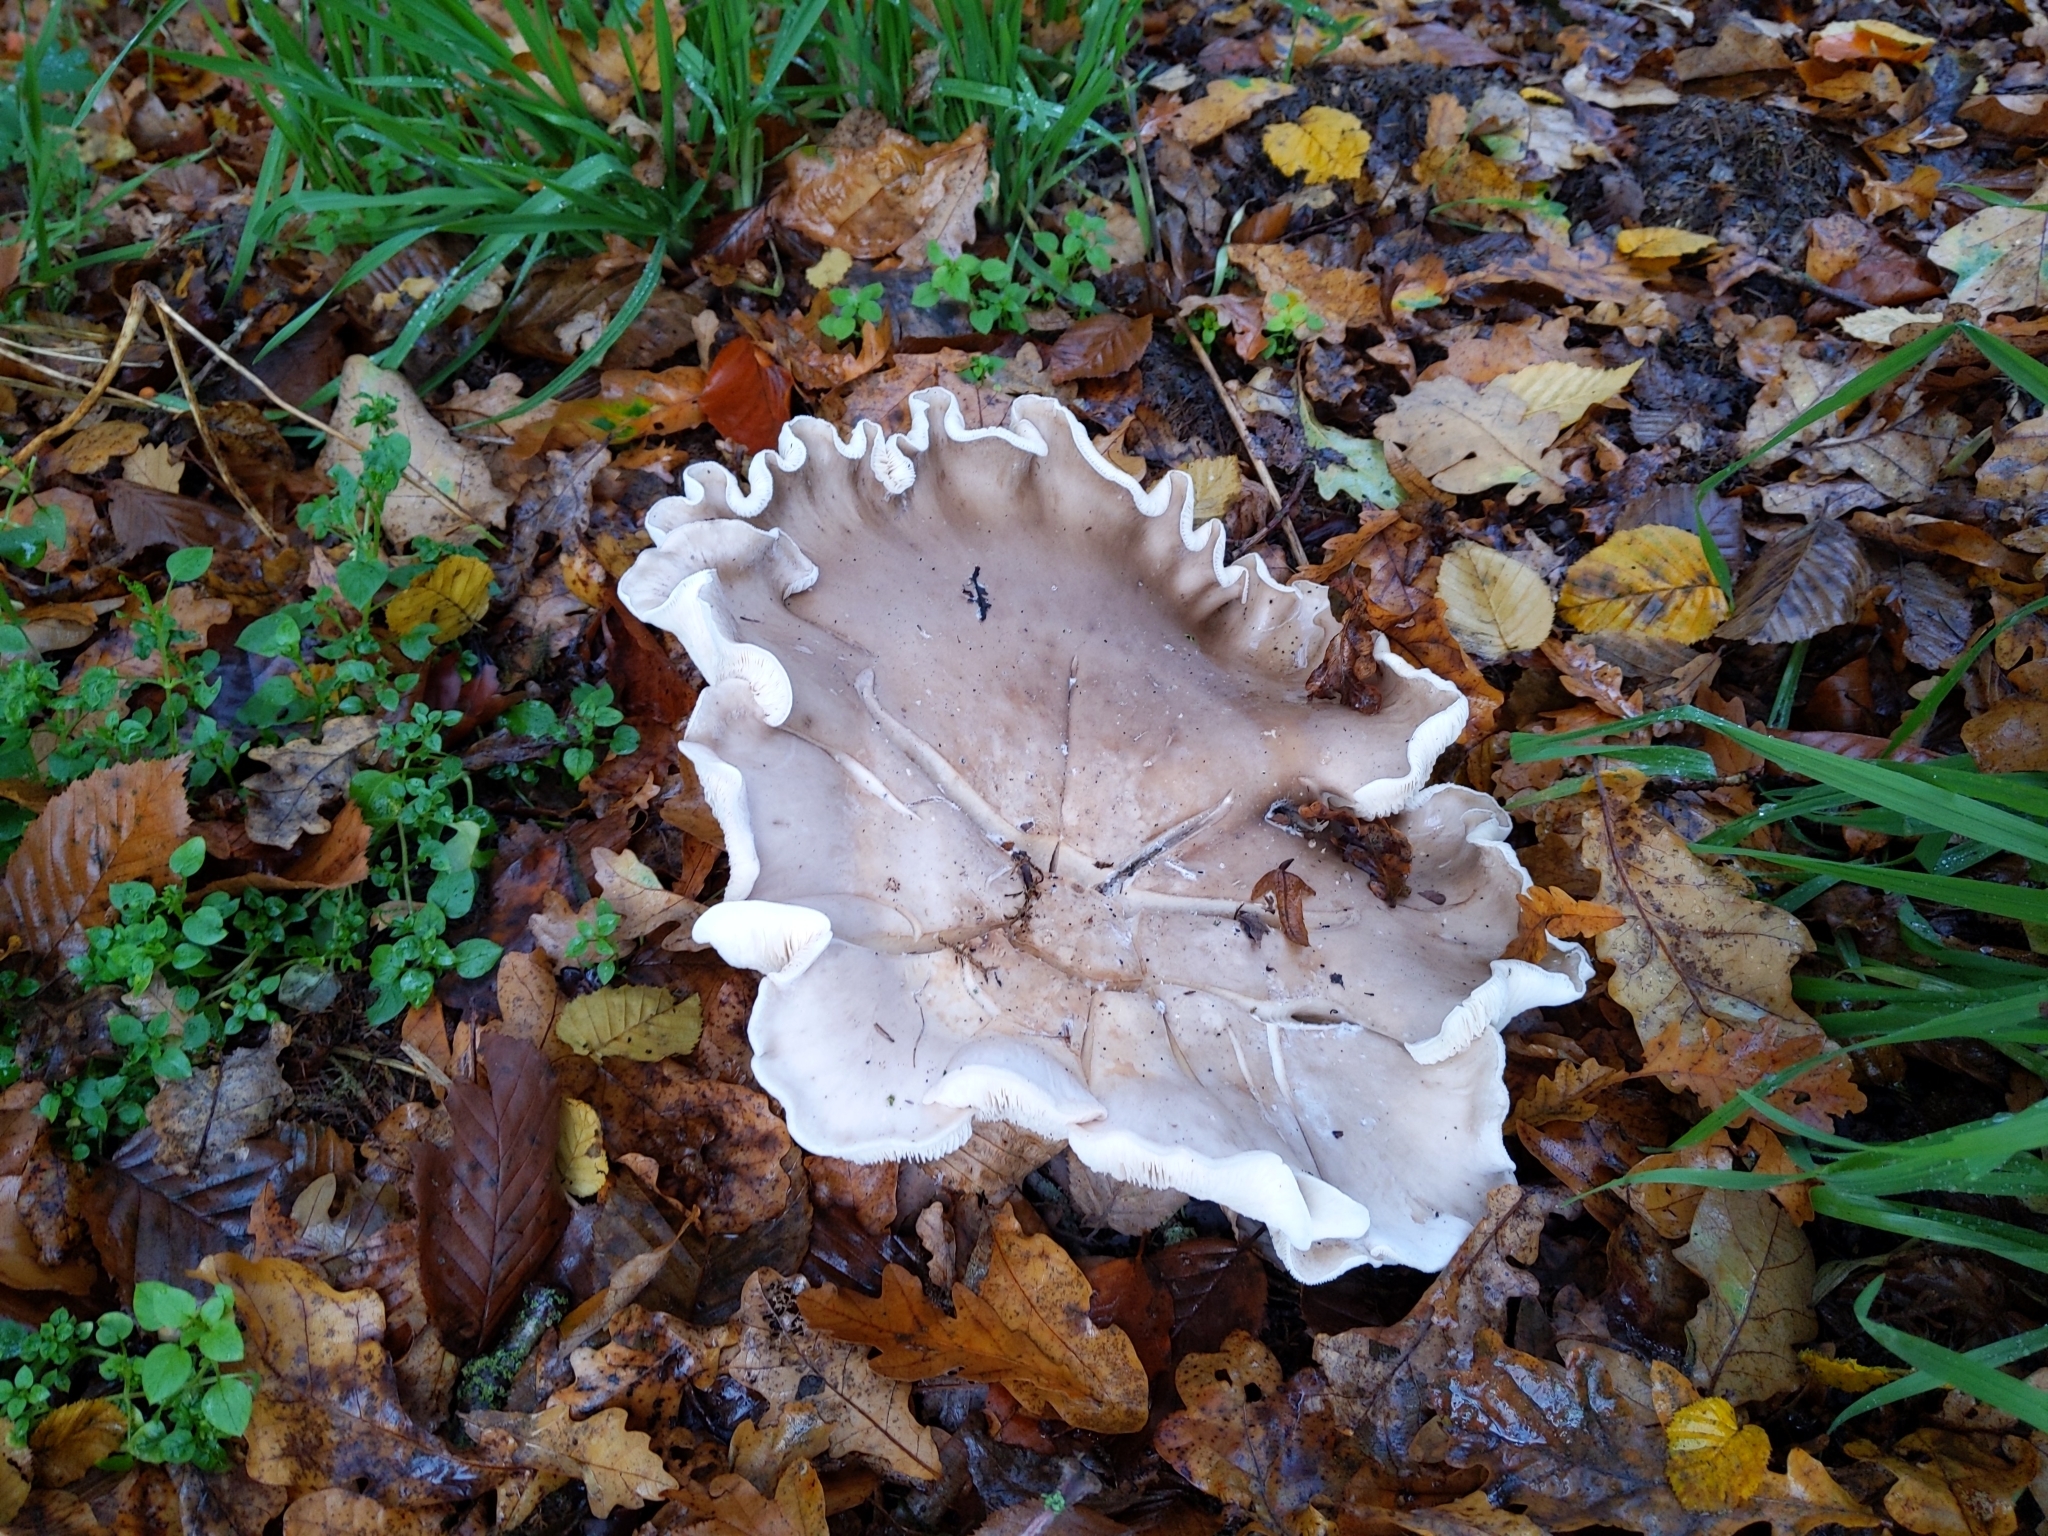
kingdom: Fungi
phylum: Basidiomycota
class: Agaricomycetes
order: Agaricales
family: Tricholomataceae
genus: Clitocybe
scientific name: Clitocybe nebularis
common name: Clouded agaric
